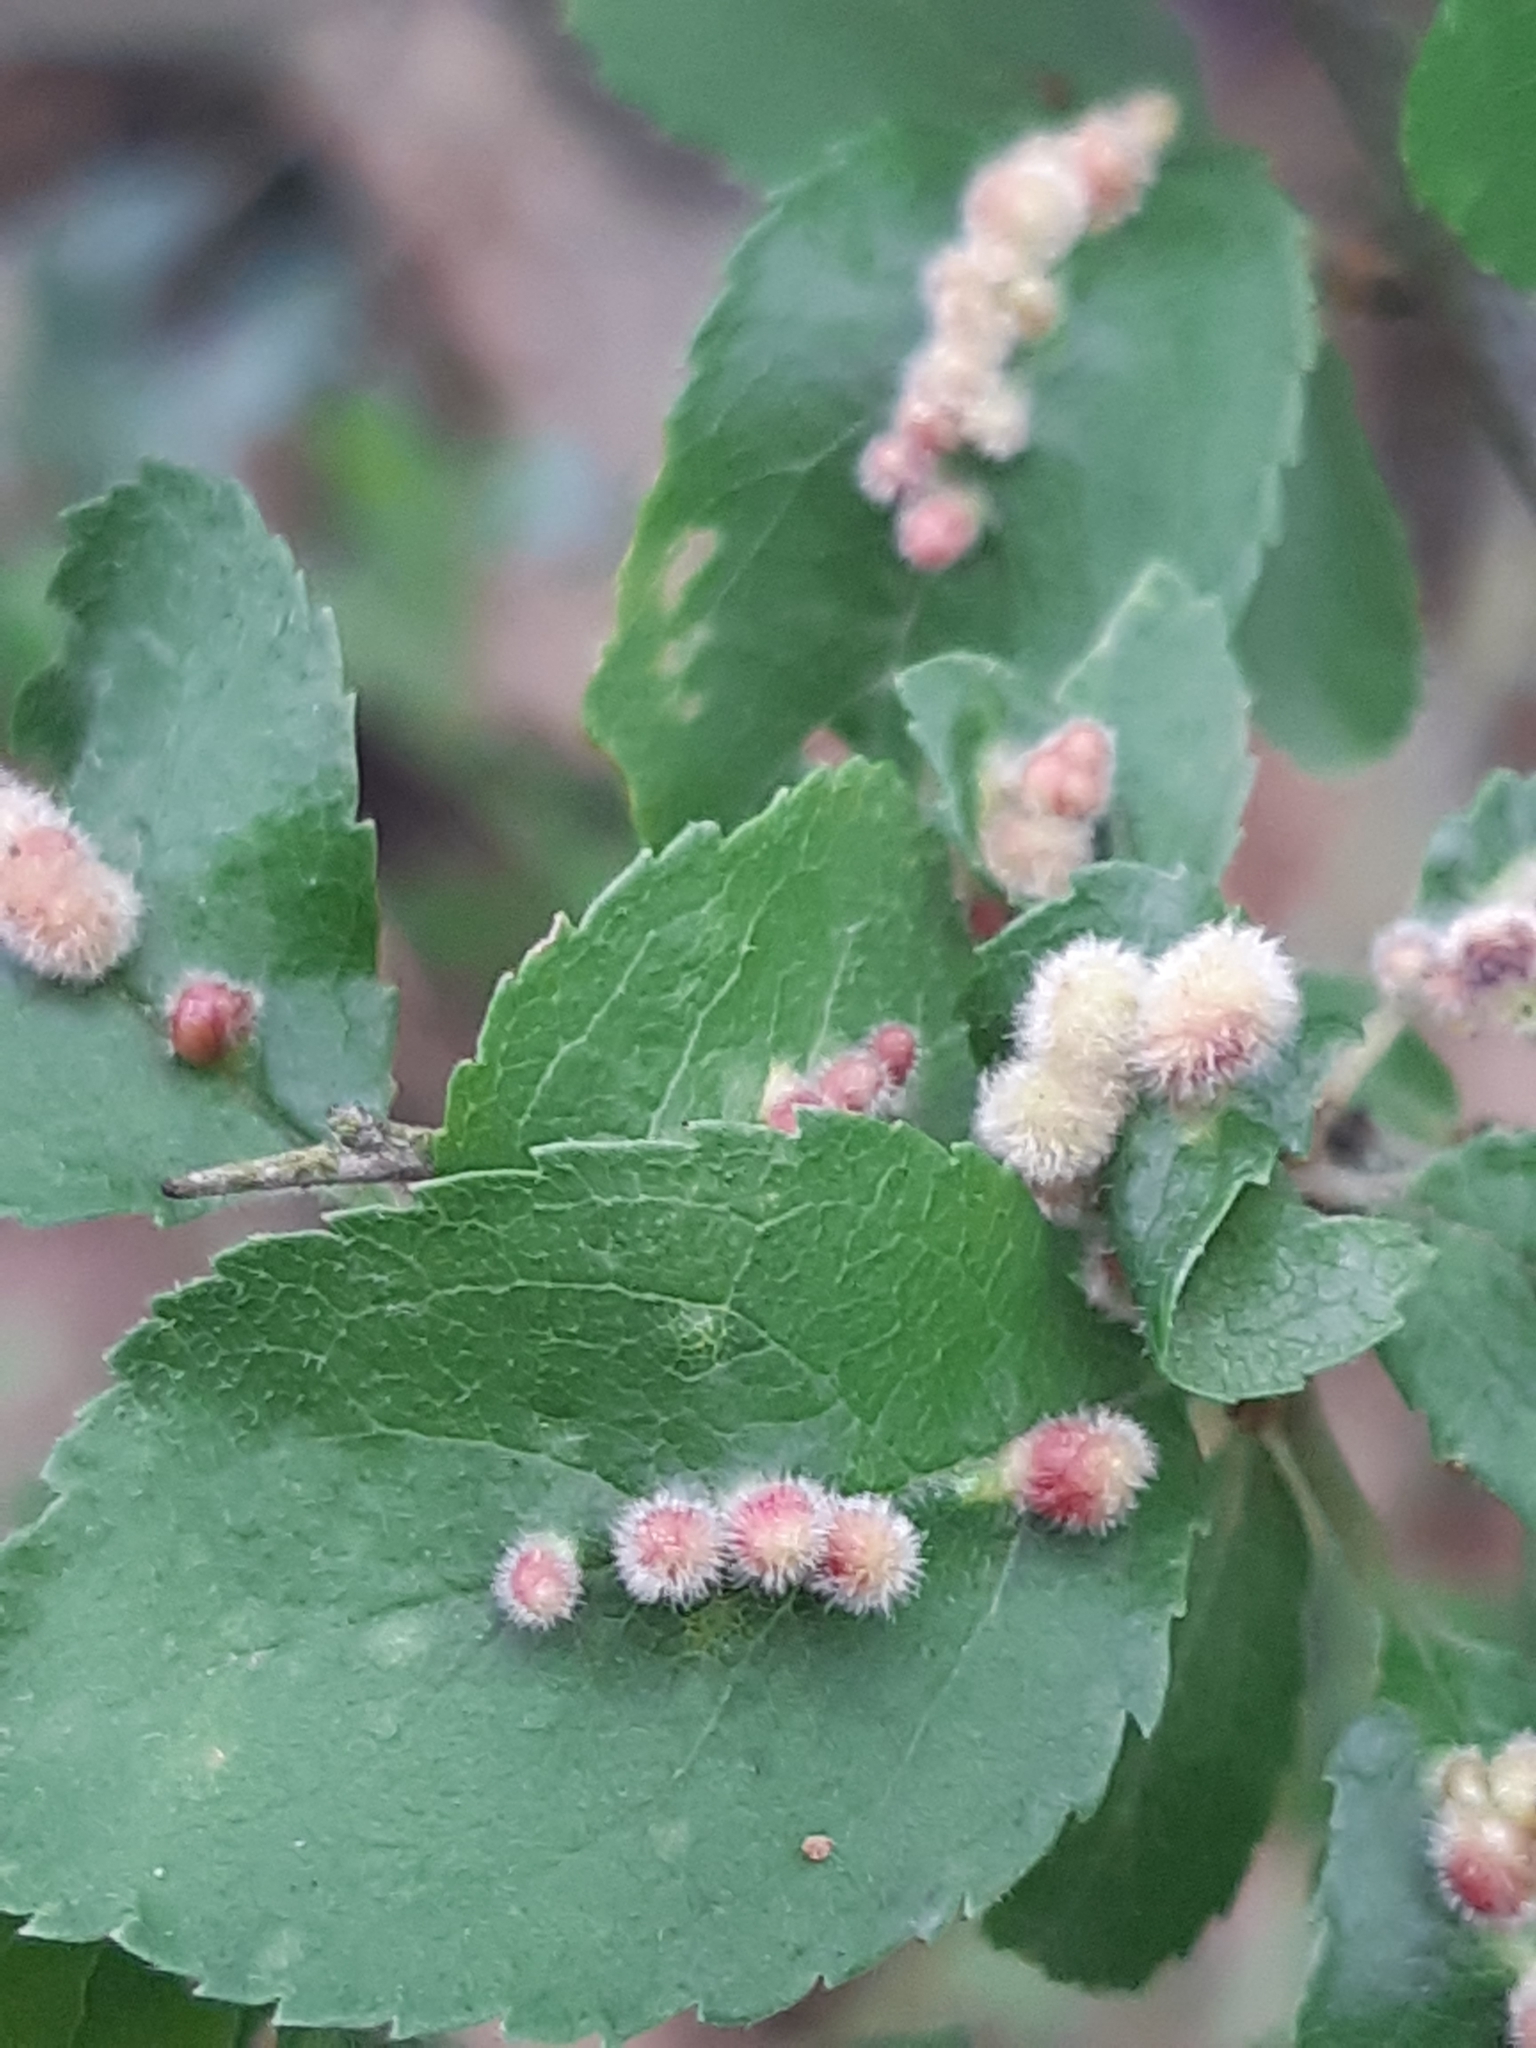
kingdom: Animalia
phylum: Arthropoda
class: Arachnida
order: Trombidiformes
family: Eriophyidae
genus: Eriophyes
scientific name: Eriophyes homophyllus
